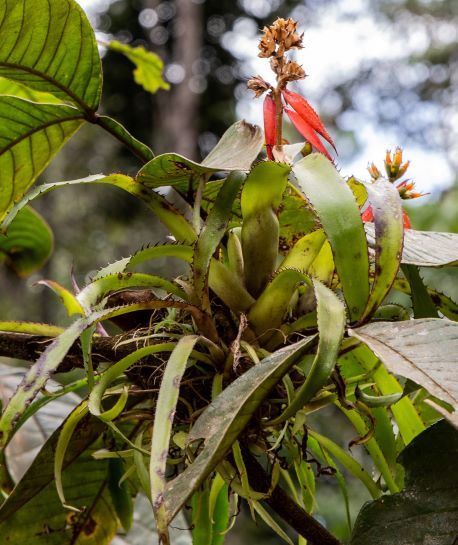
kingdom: Plantae
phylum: Tracheophyta
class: Liliopsida
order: Poales
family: Bromeliaceae
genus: Aechmea
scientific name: Aechmea mertensii
